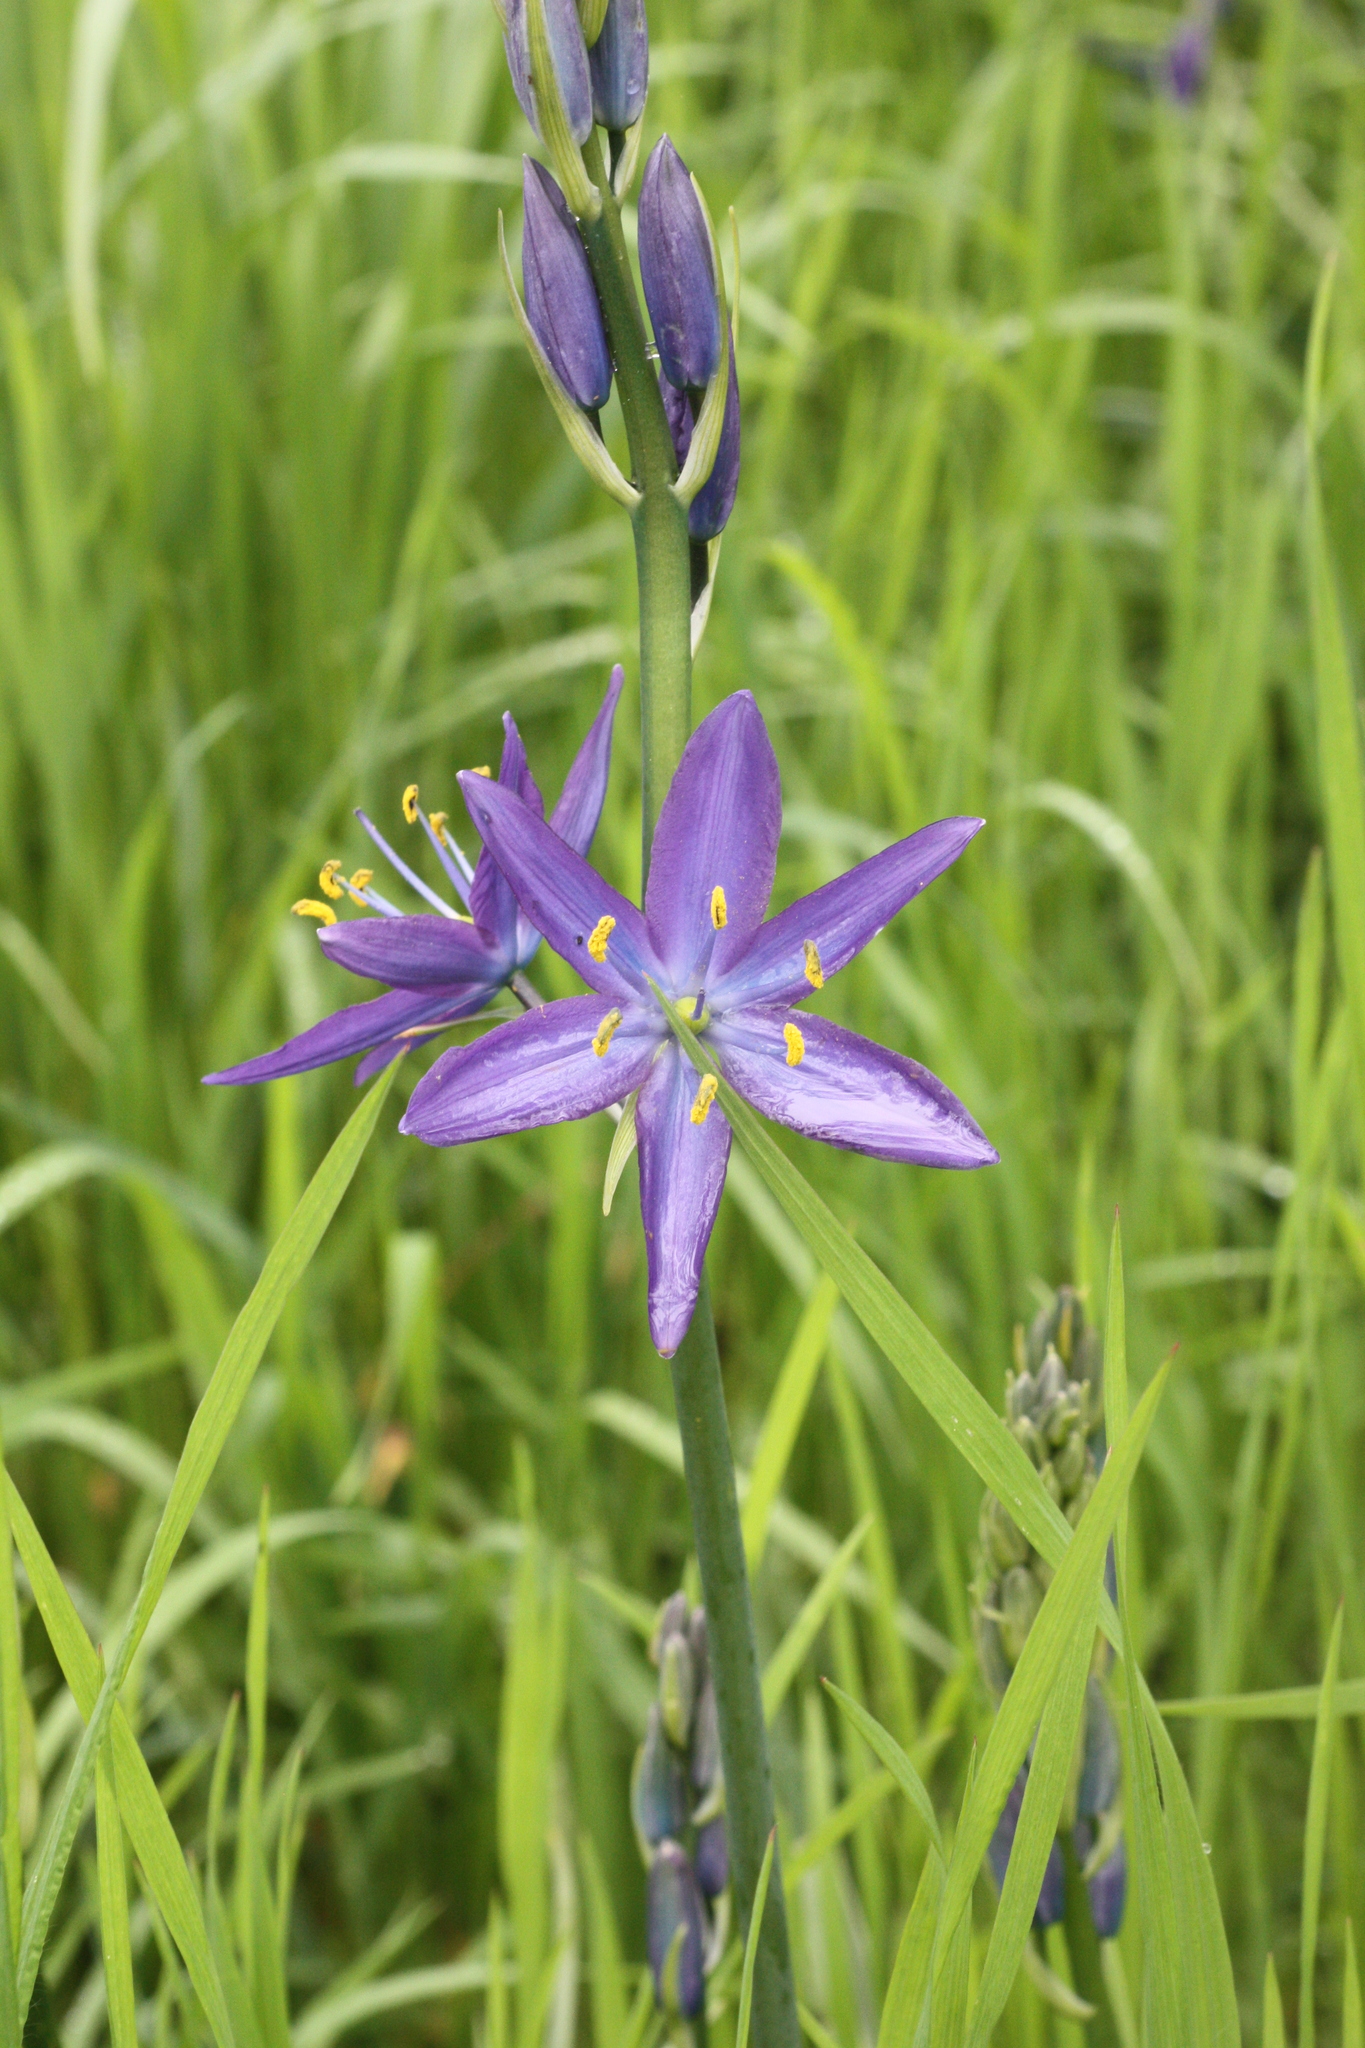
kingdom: Plantae
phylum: Tracheophyta
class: Liliopsida
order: Asparagales
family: Asparagaceae
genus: Camassia
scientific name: Camassia leichtlinii
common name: Leichtlin's camas
